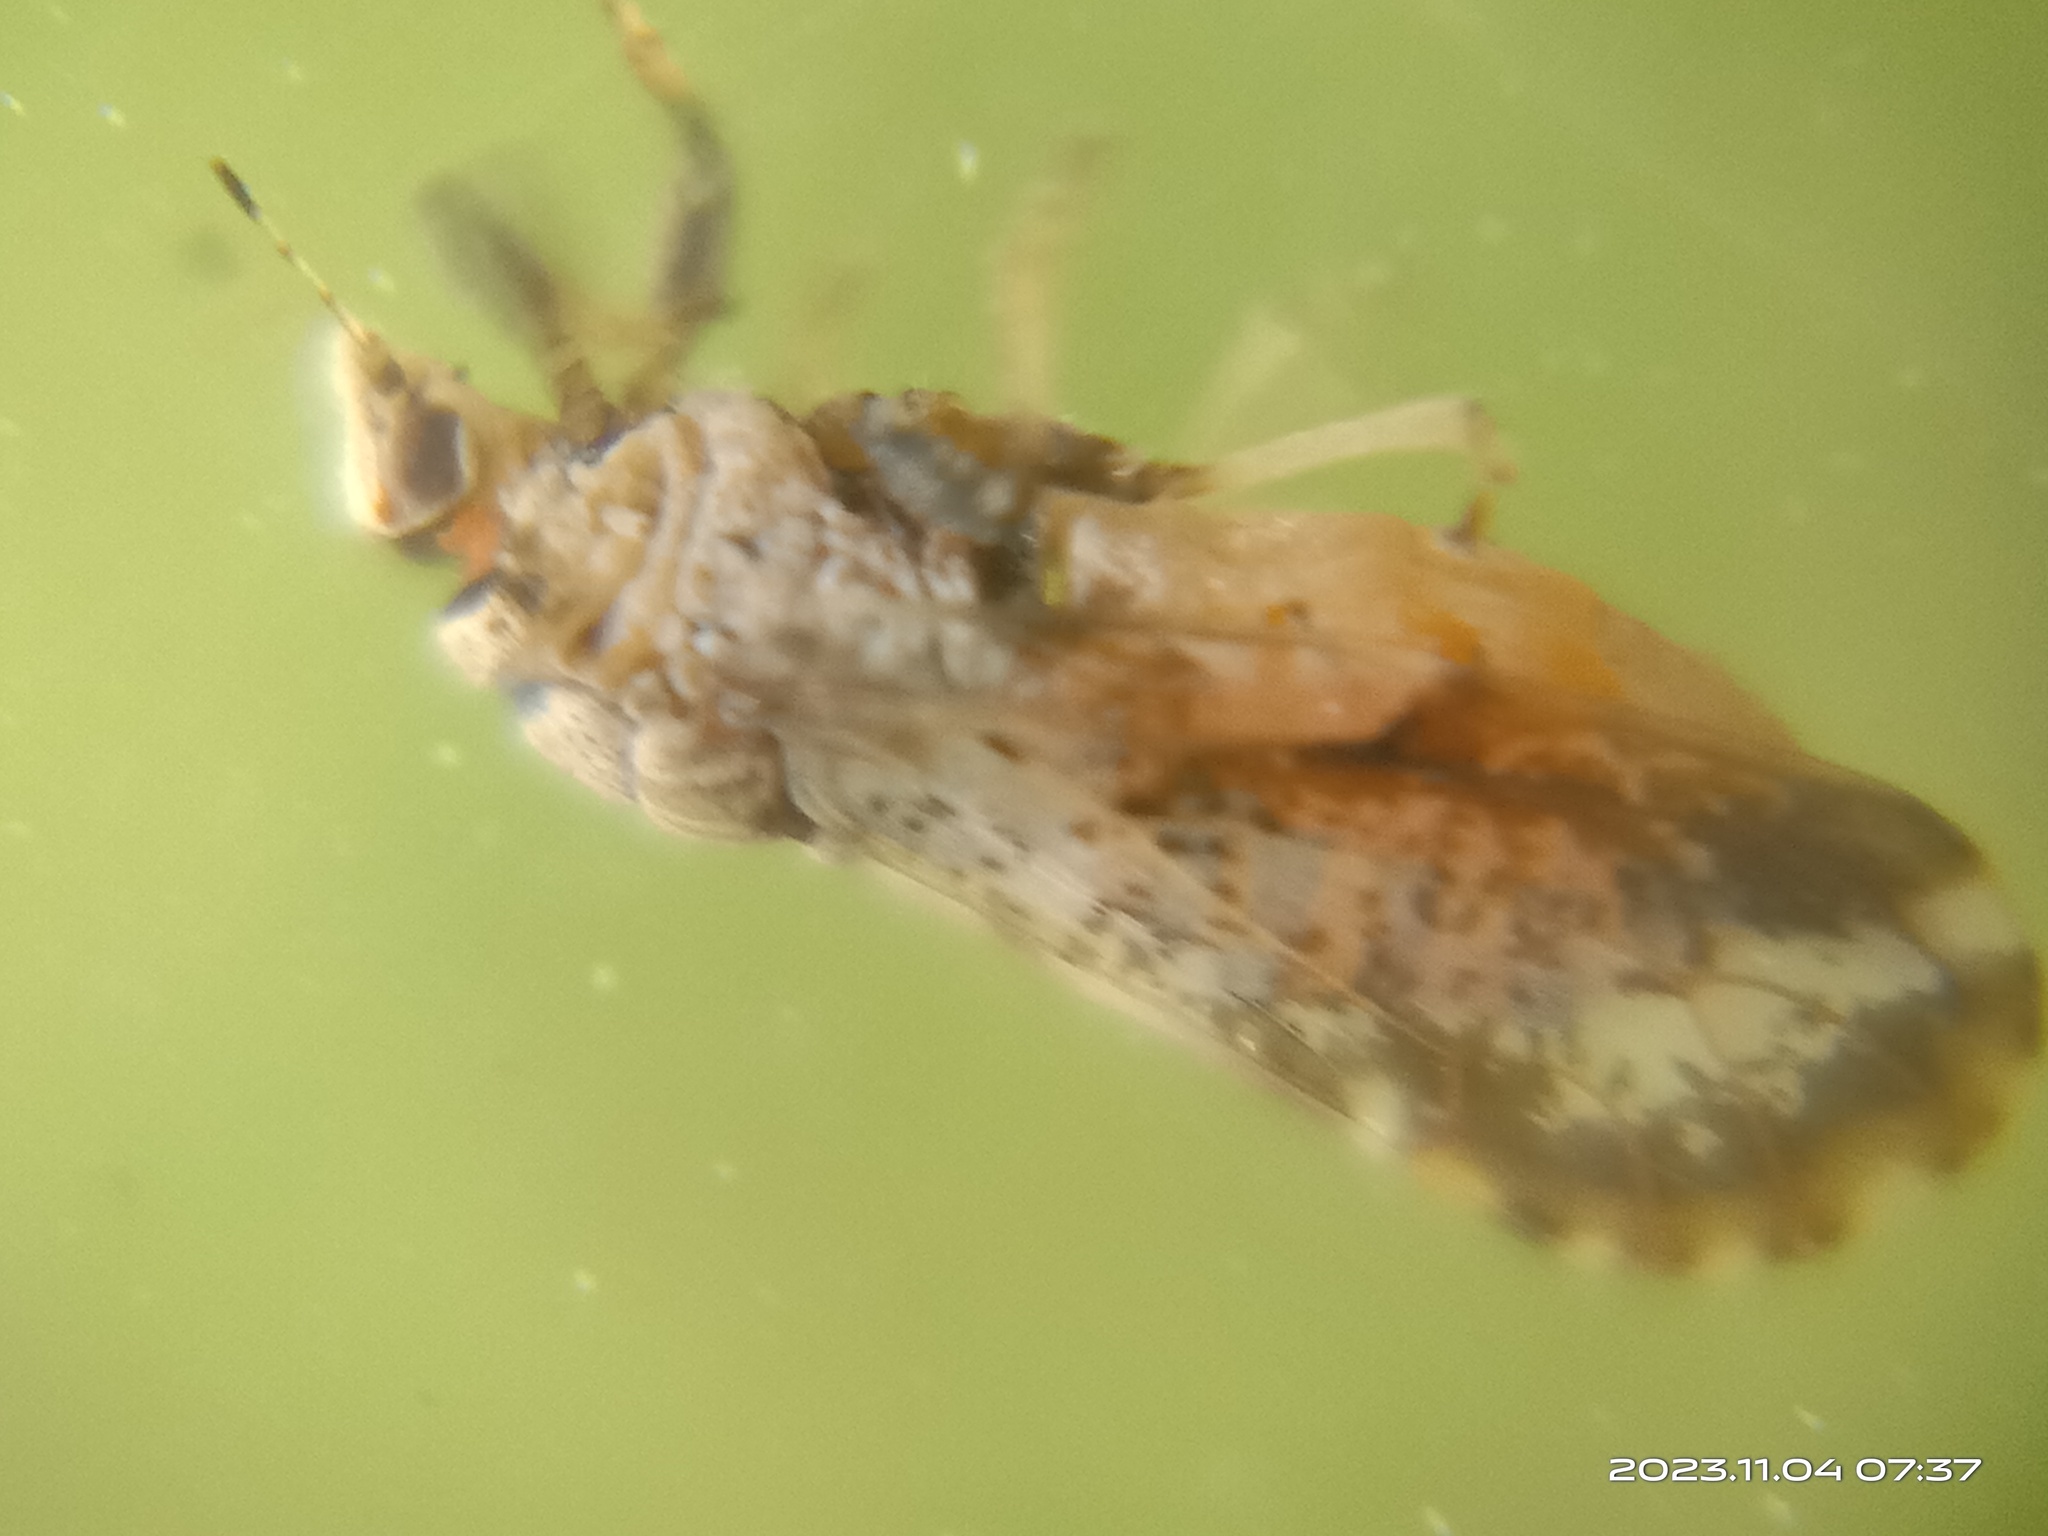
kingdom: Animalia
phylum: Arthropoda
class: Insecta
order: Hemiptera
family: Liviidae
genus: Diaphorina
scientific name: Diaphorina citri
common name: Asian citrus psyllid
